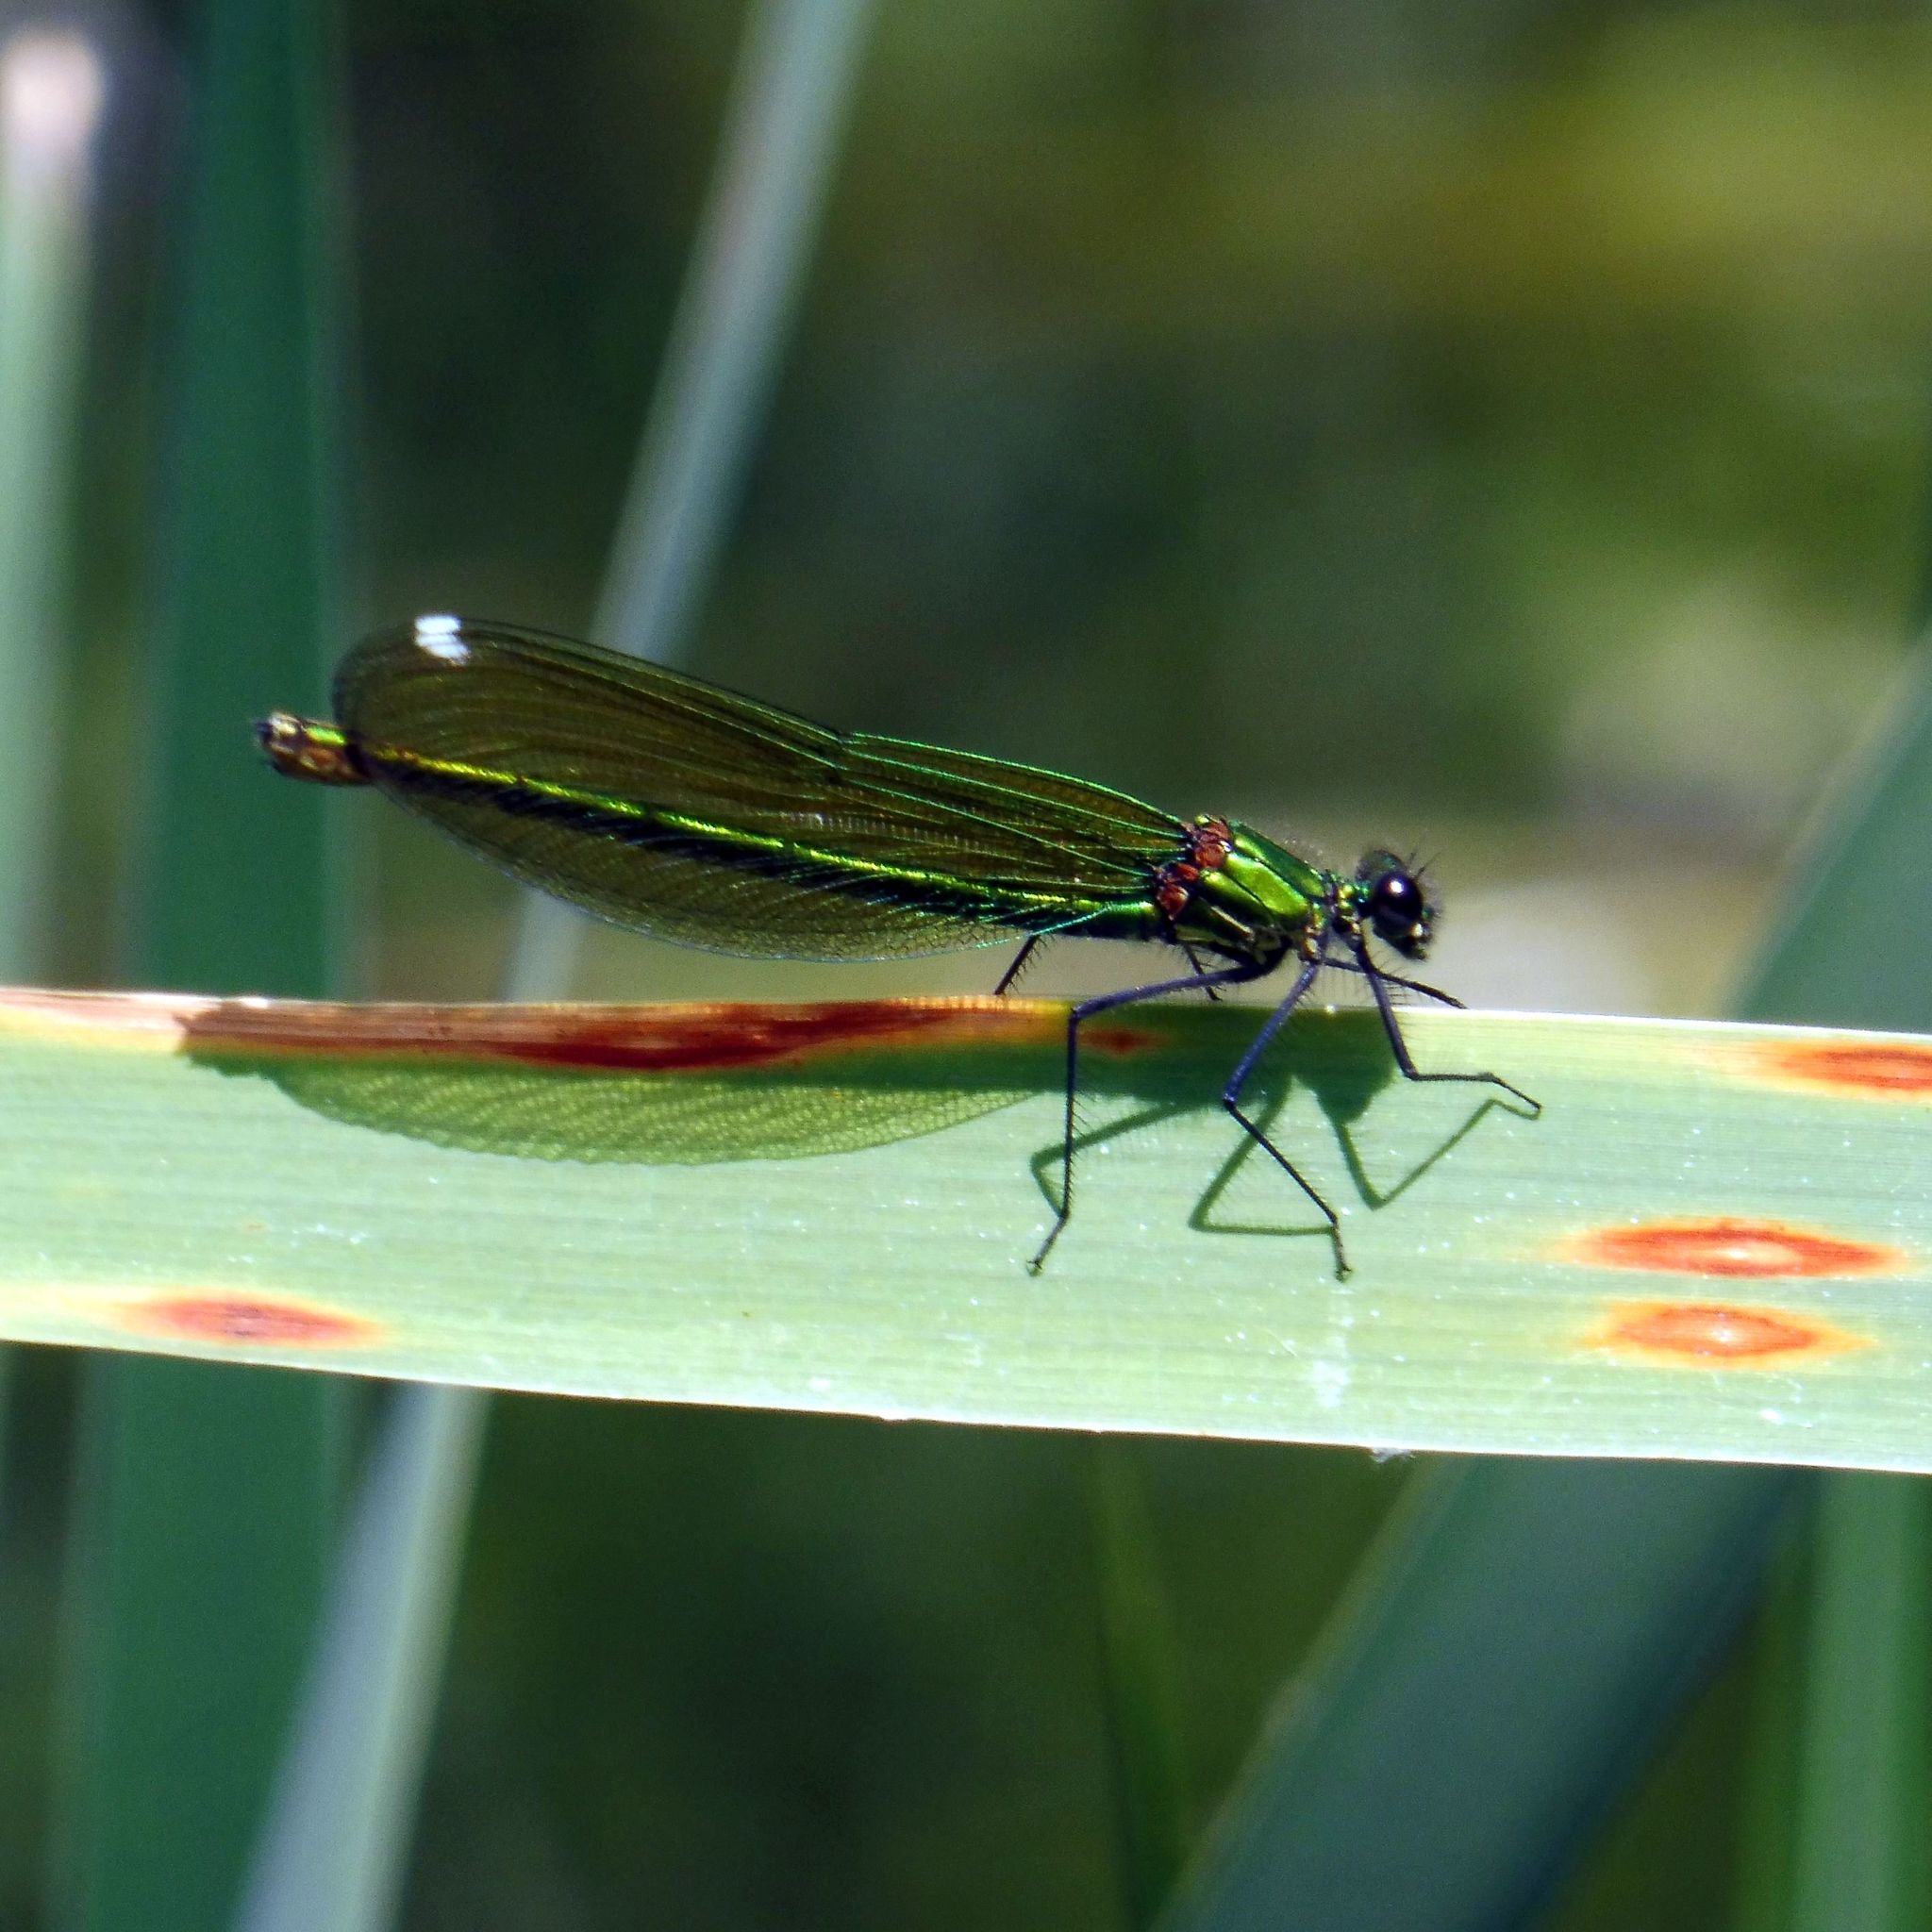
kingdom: Animalia
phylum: Arthropoda
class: Insecta
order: Odonata
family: Calopterygidae
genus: Calopteryx
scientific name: Calopteryx splendens
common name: Banded demoiselle
